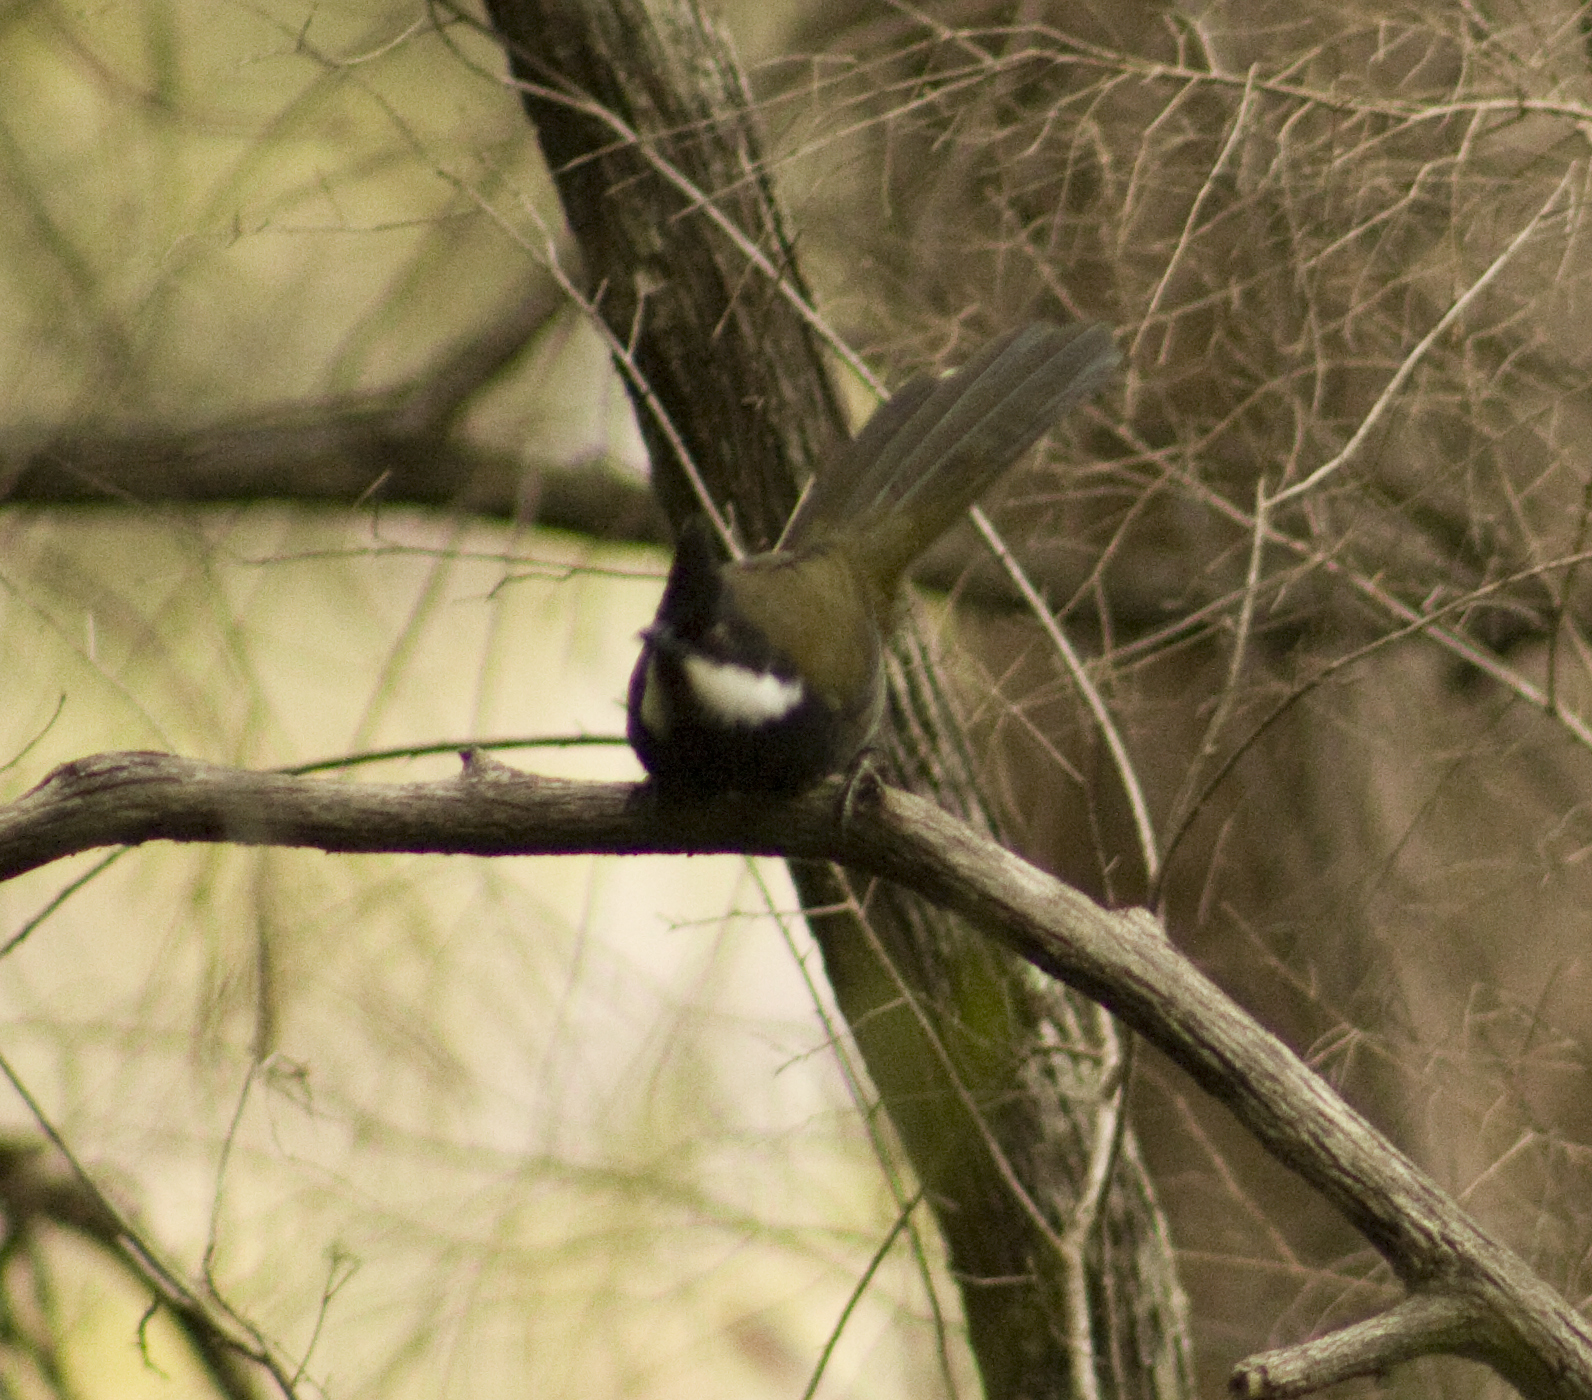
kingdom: Animalia
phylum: Chordata
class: Aves
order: Passeriformes
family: Psophodidae
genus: Psophodes
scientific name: Psophodes olivaceus
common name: Eastern whipbird
